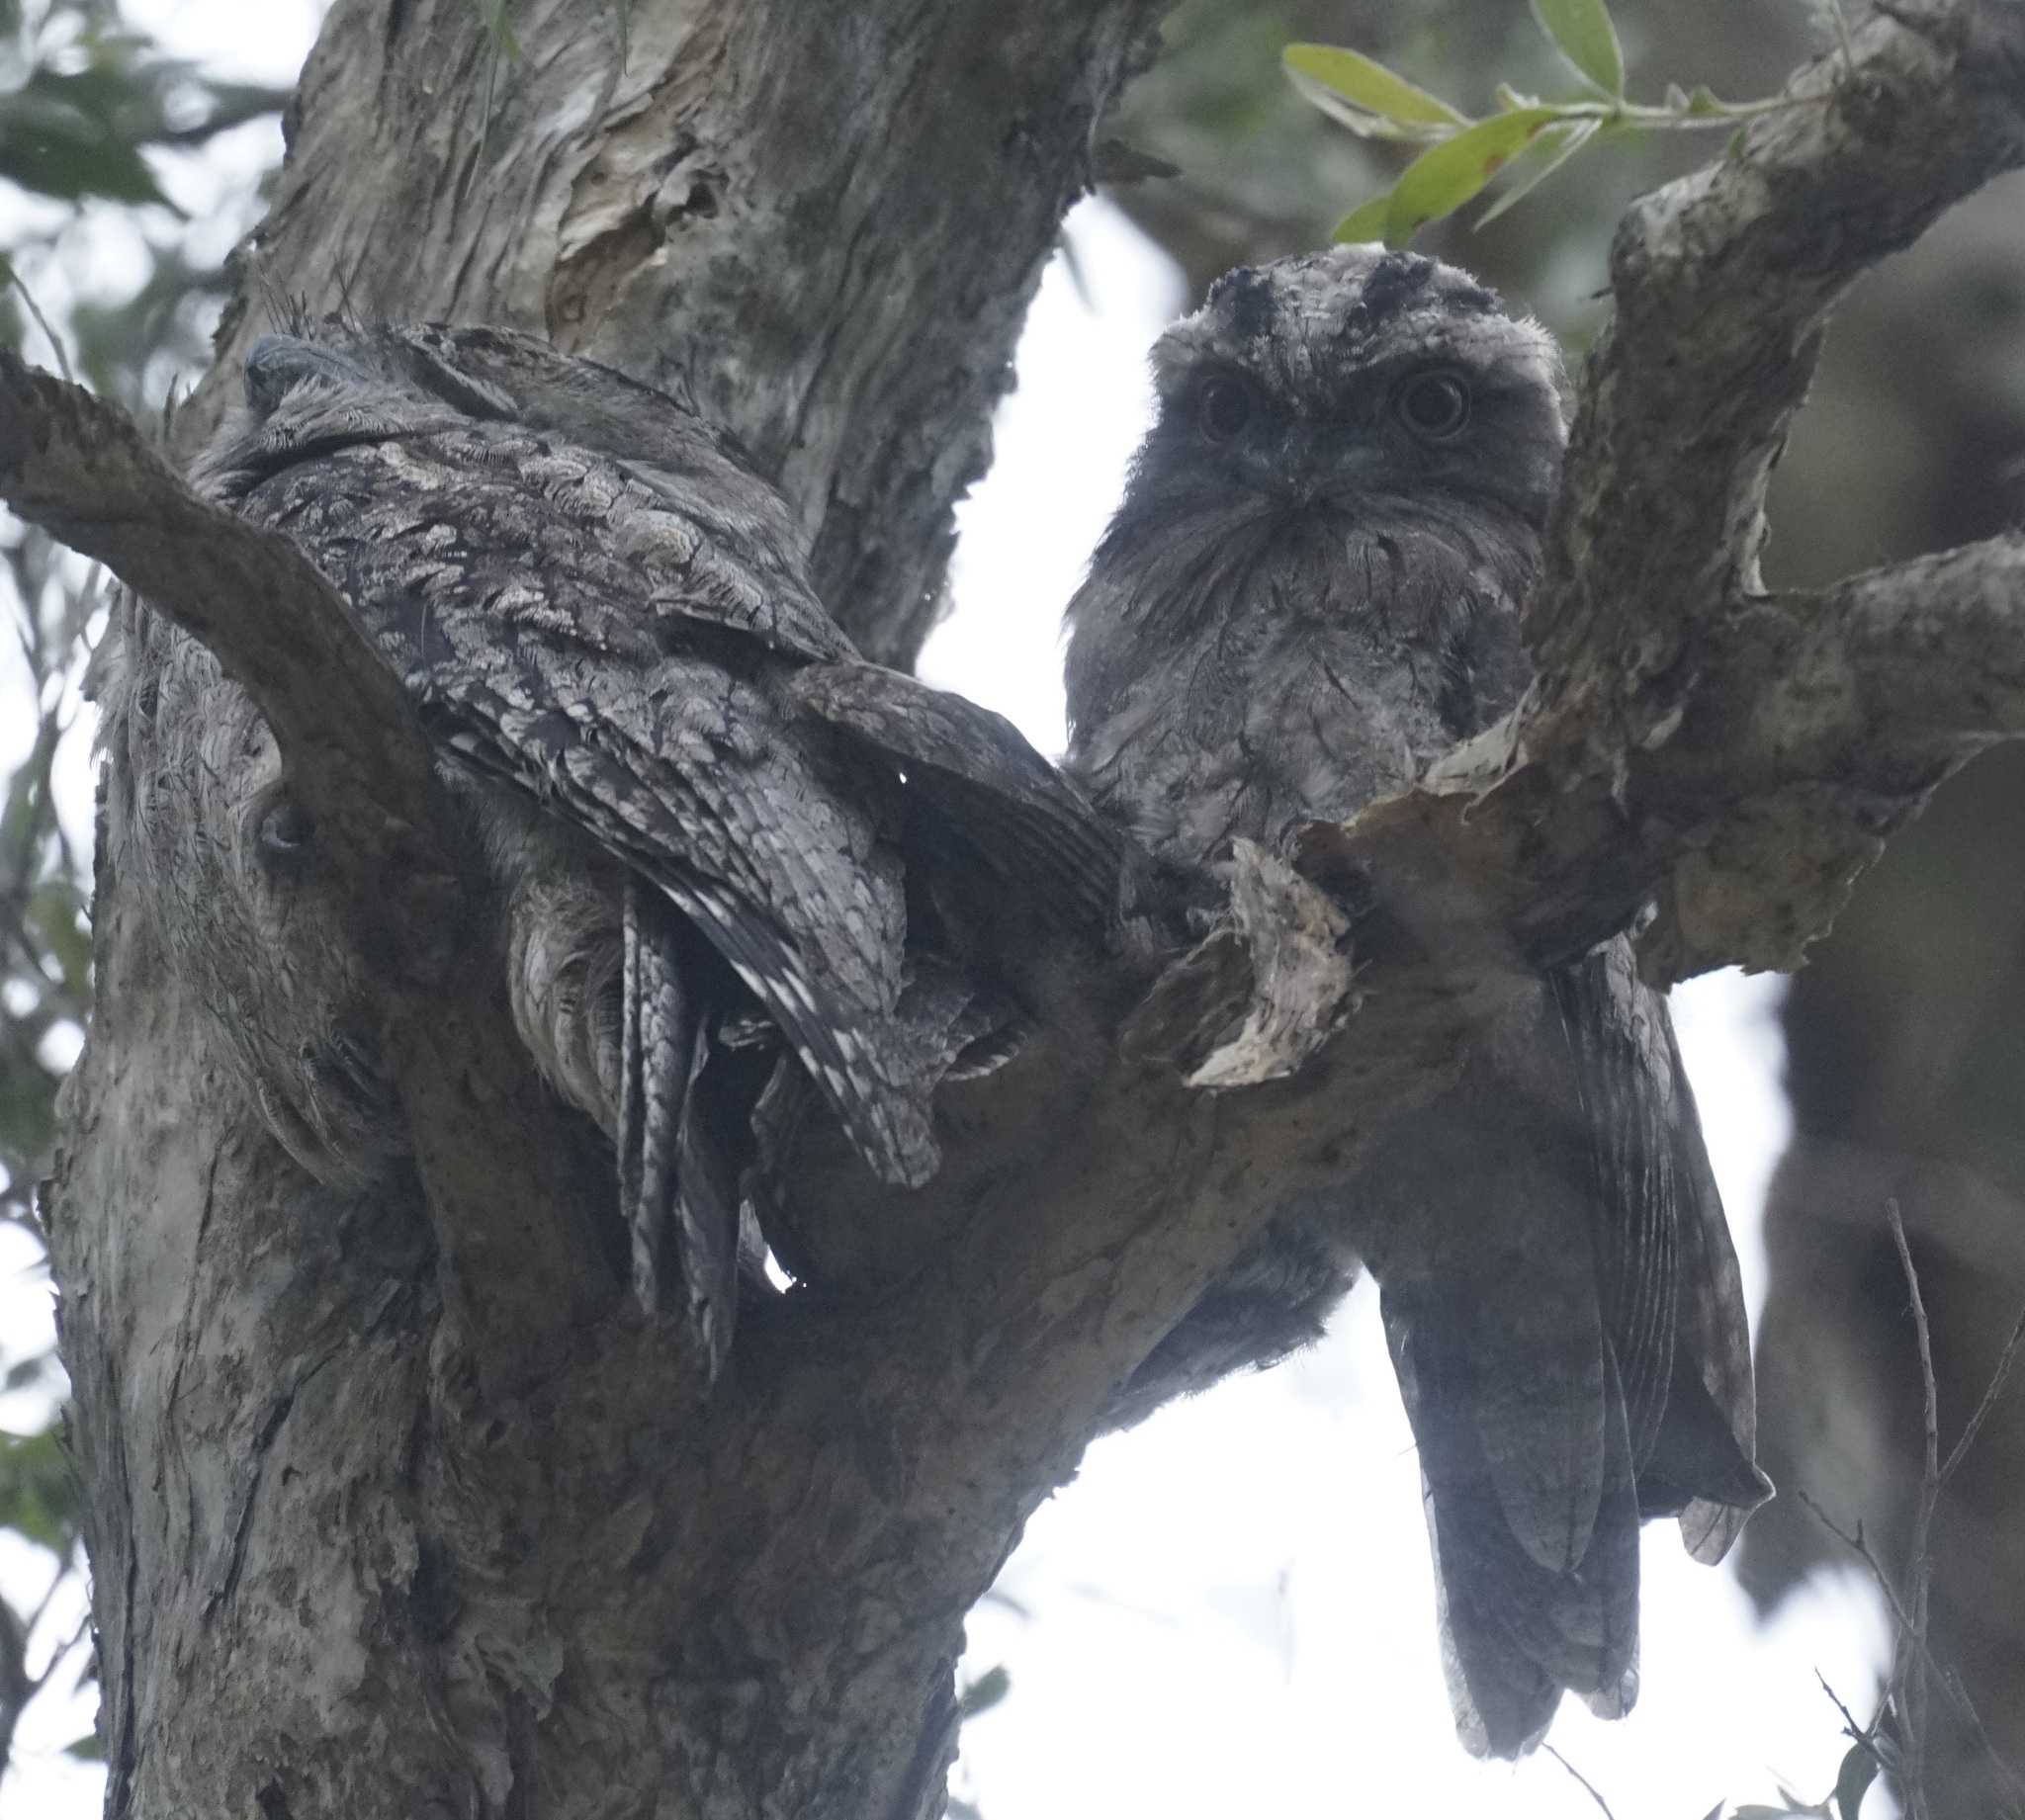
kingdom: Animalia
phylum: Chordata
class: Aves
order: Caprimulgiformes
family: Podargidae
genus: Podargus
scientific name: Podargus strigoides
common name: Tawny frogmouth
